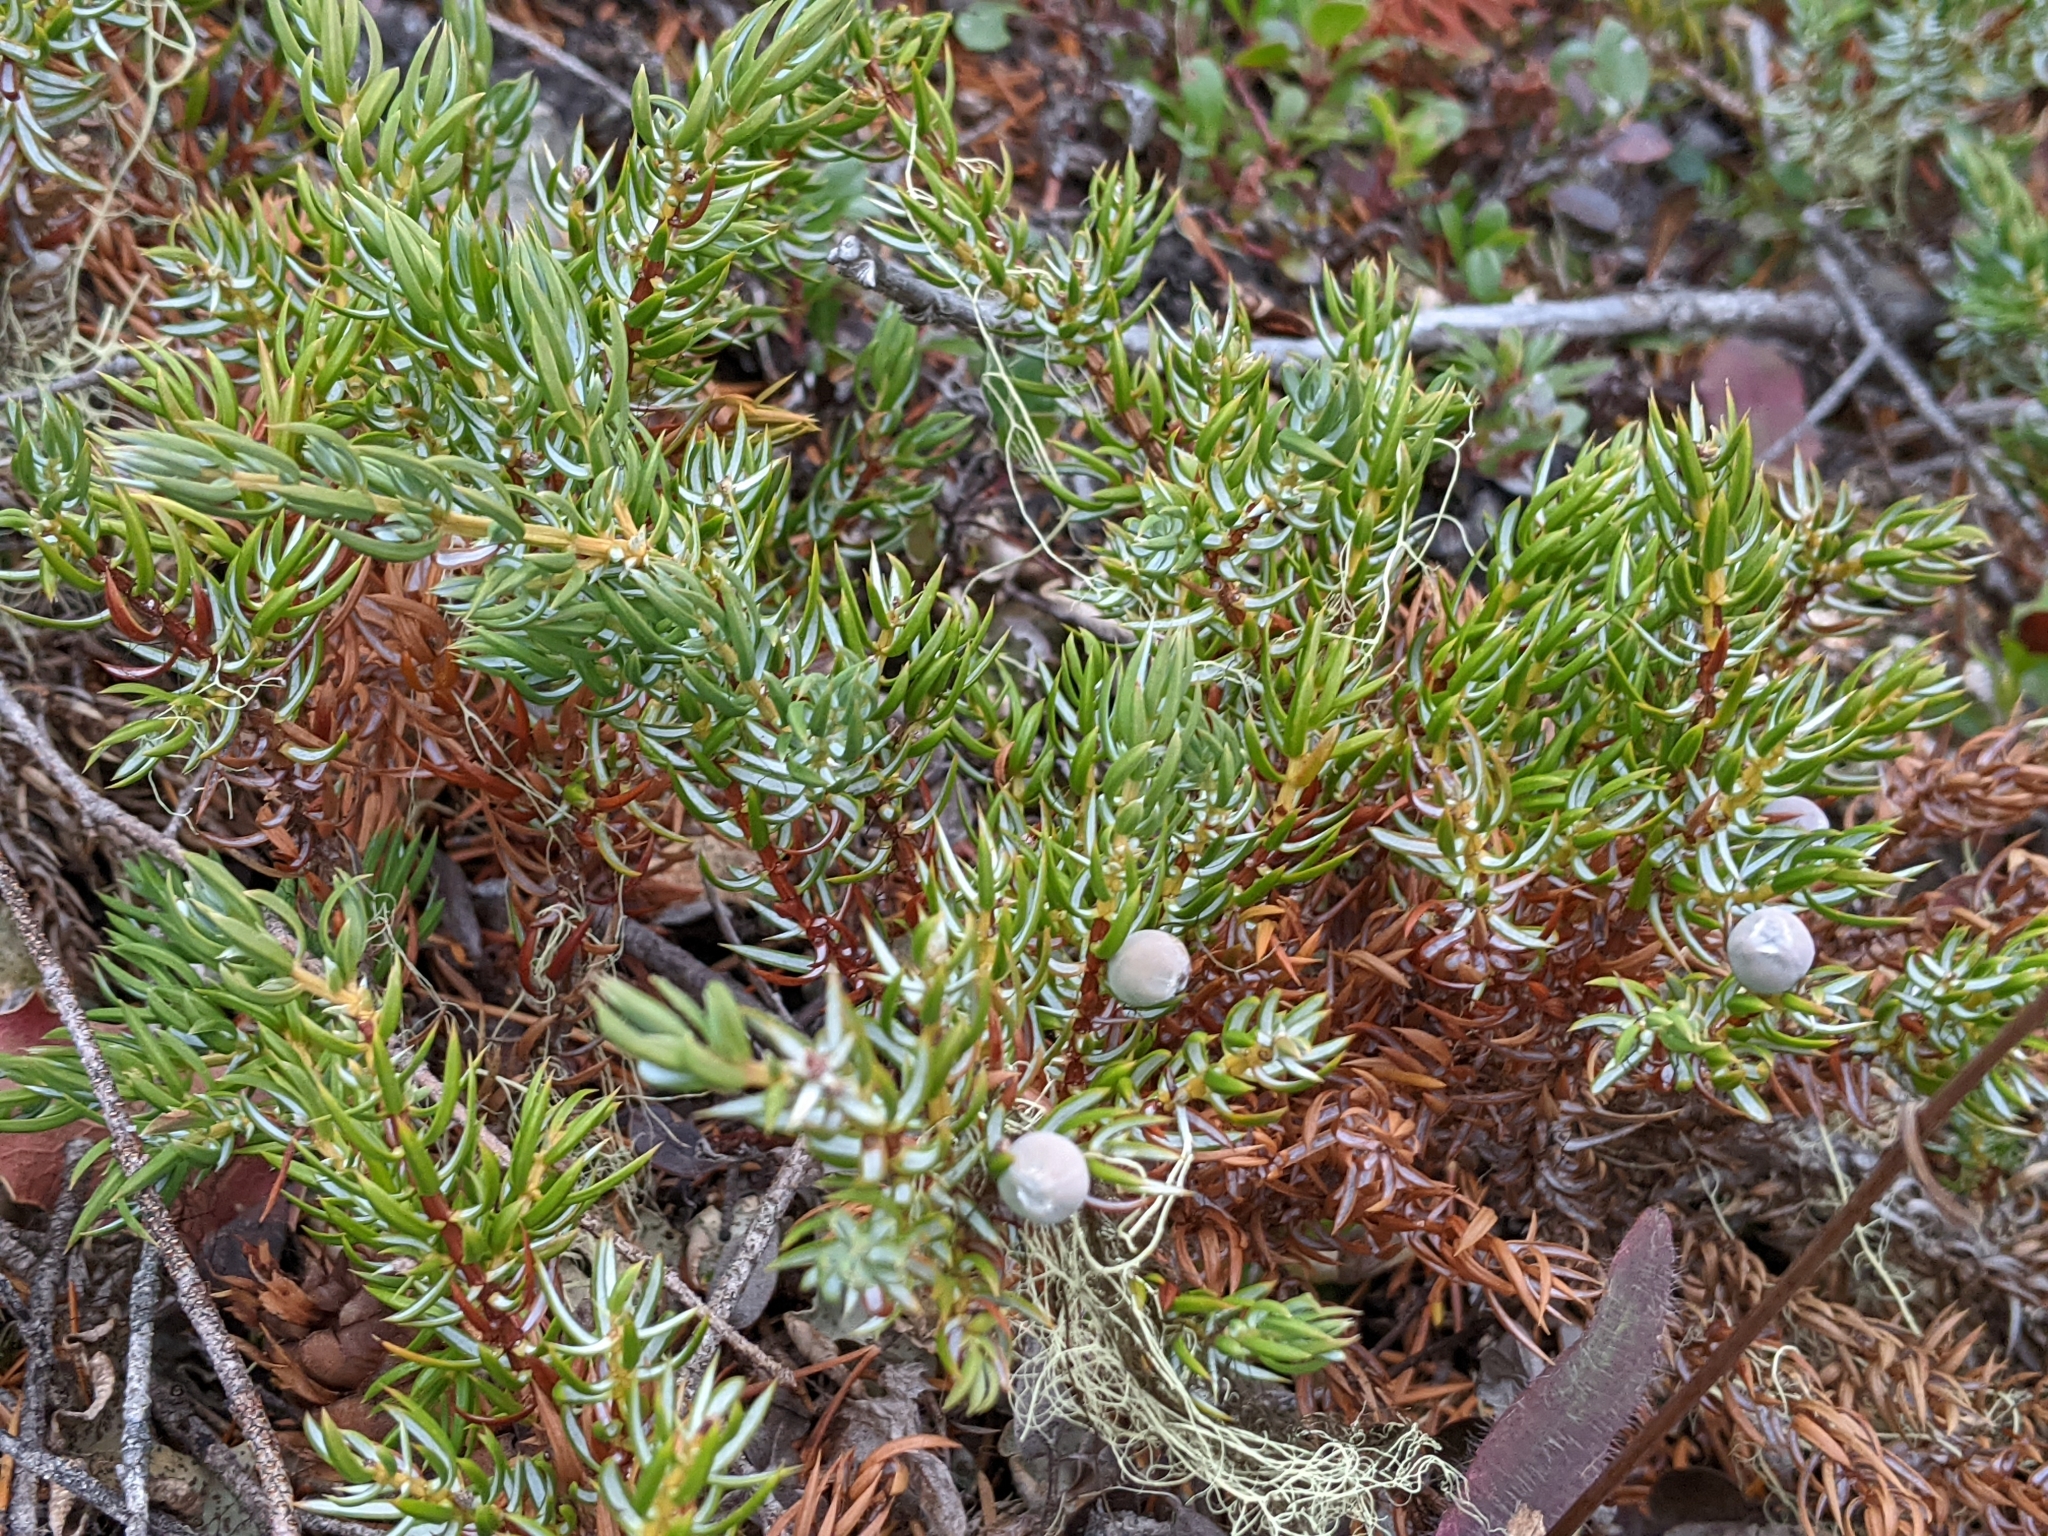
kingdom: Plantae
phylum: Tracheophyta
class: Pinopsida
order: Pinales
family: Cupressaceae
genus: Juniperus
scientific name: Juniperus communis
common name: Common juniper
